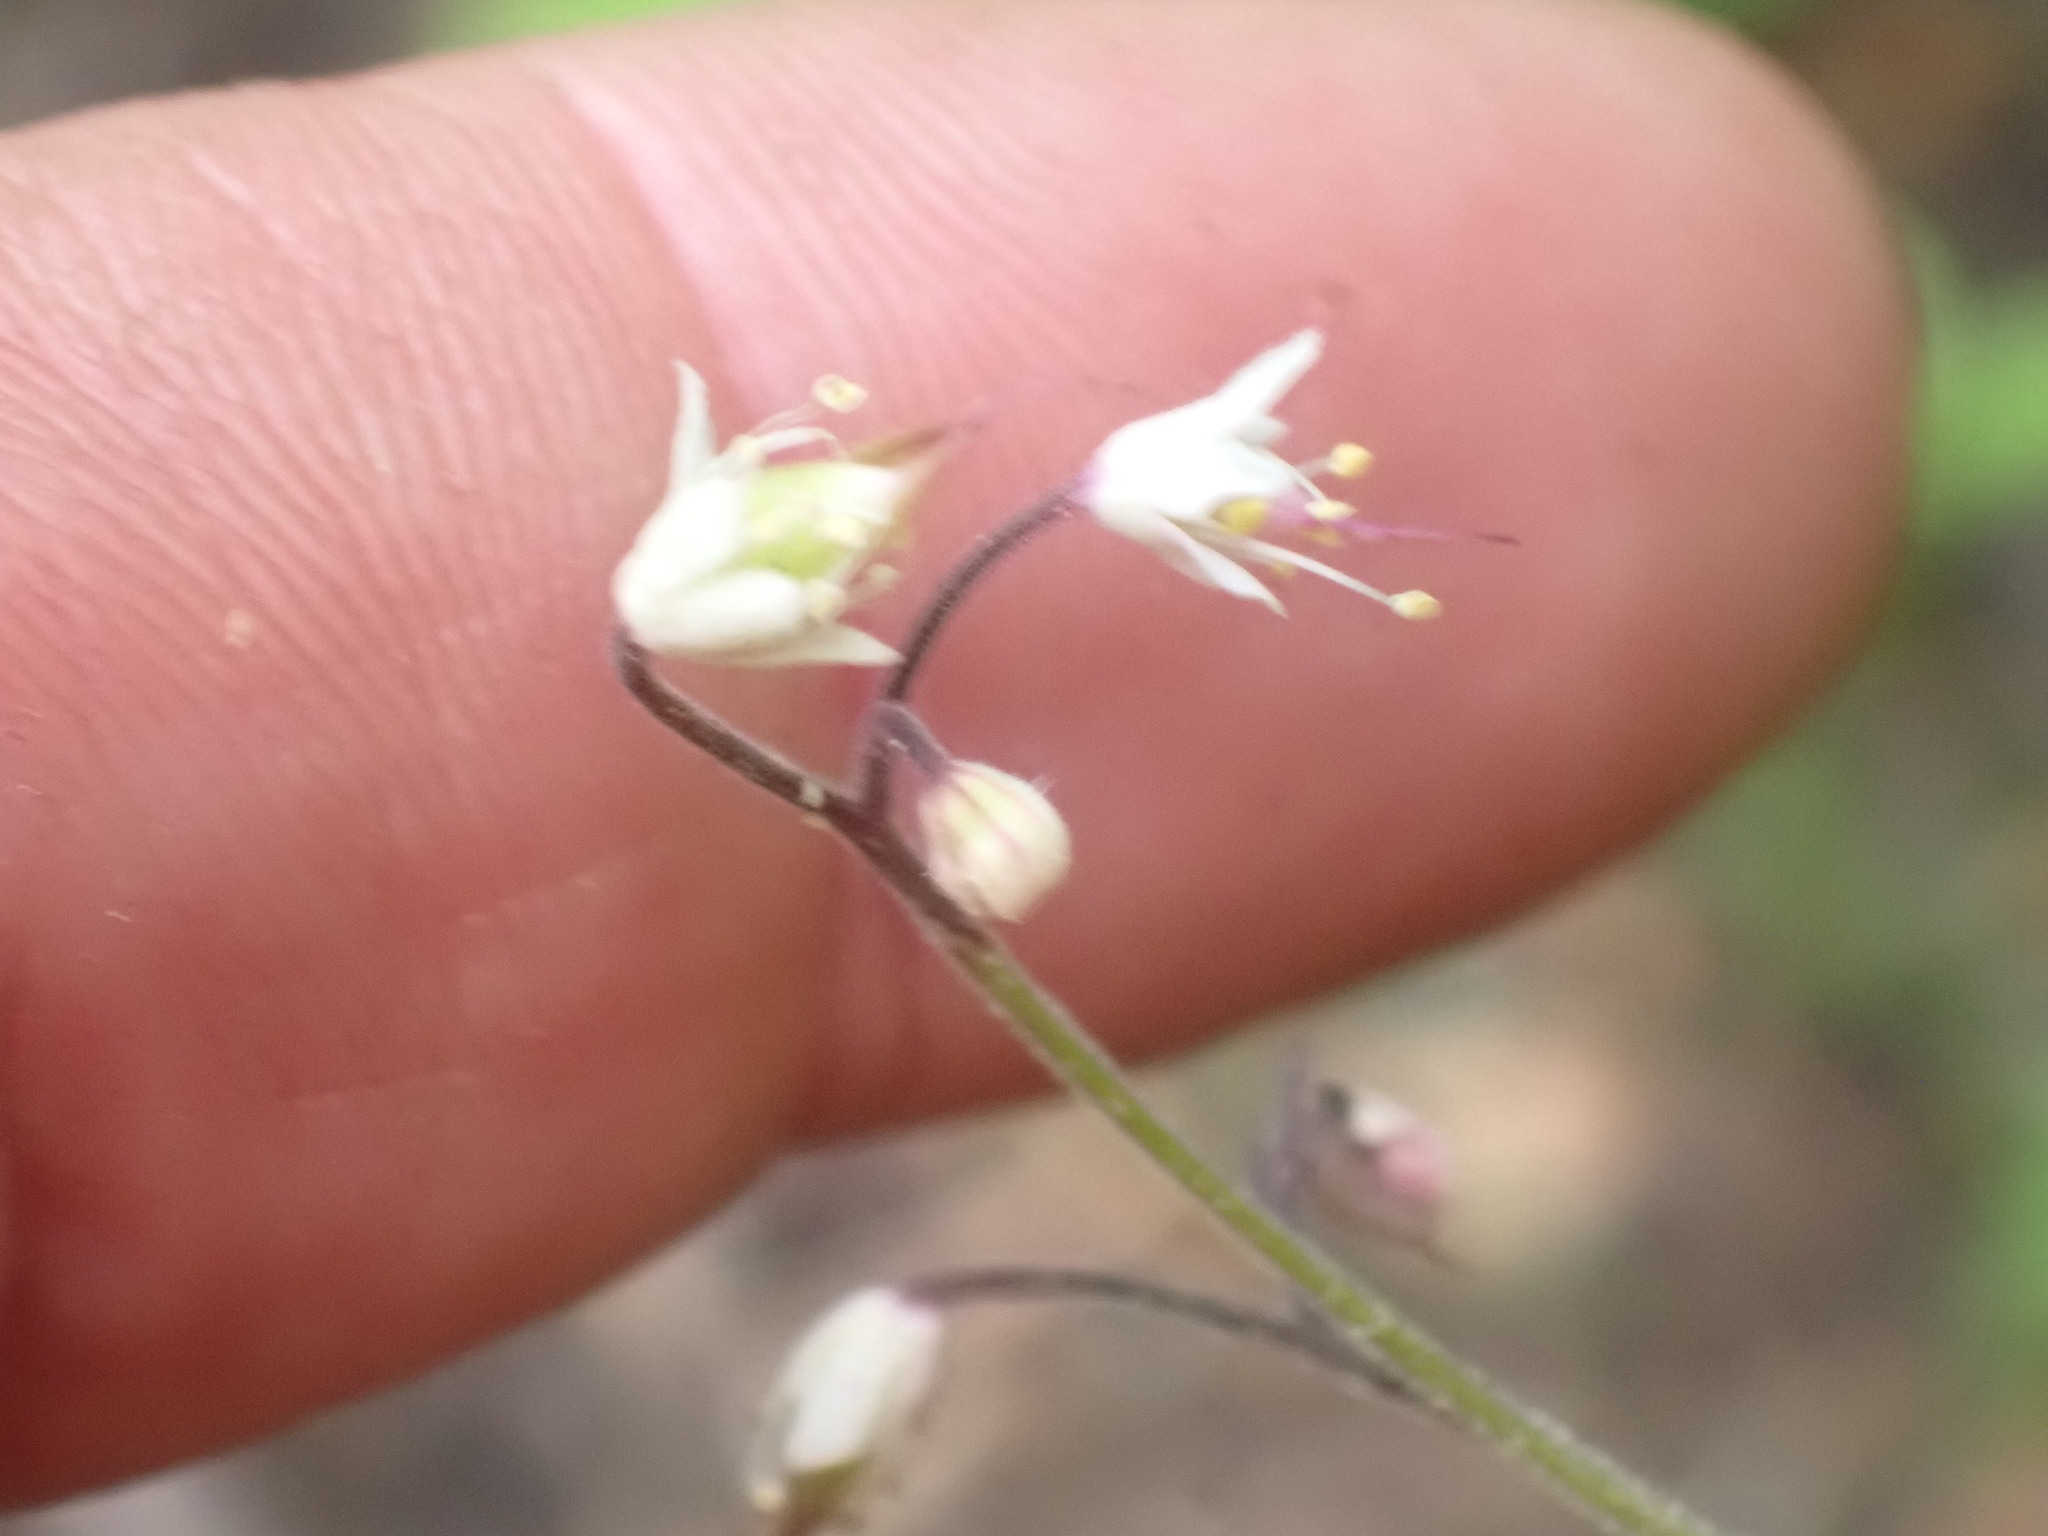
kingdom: Plantae
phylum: Tracheophyta
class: Magnoliopsida
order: Saxifragales
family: Saxifragaceae
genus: Tiarella
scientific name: Tiarella trifoliata
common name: Sugar-scoop
